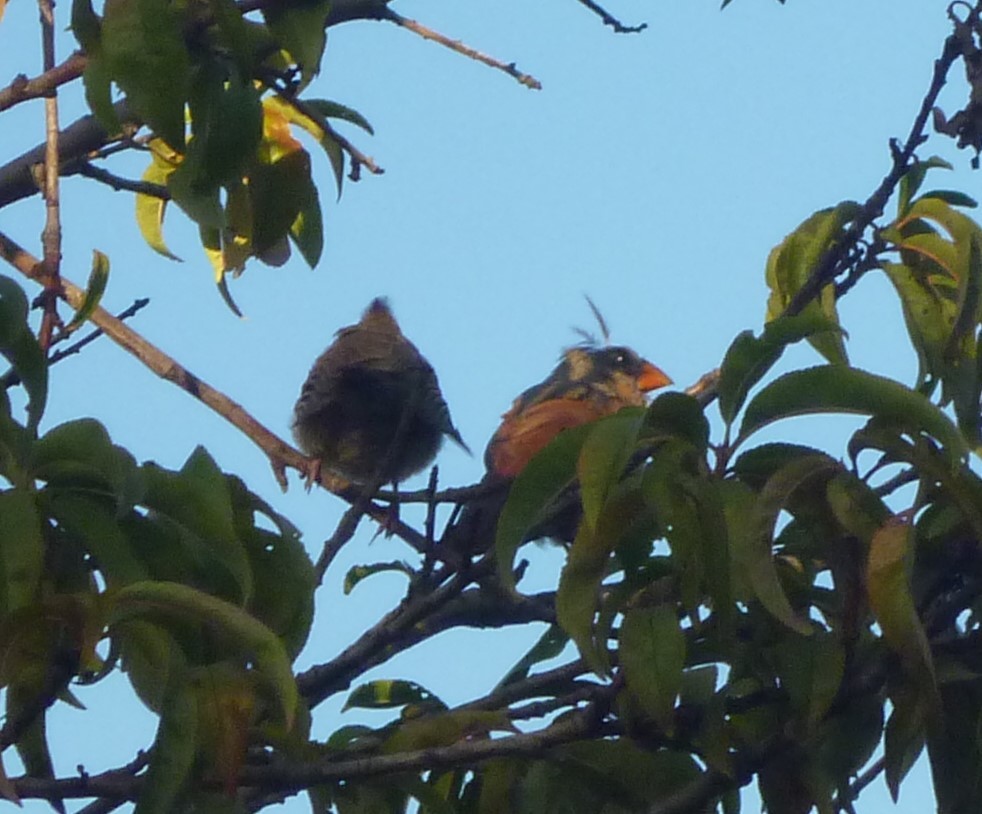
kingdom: Animalia
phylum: Chordata
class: Aves
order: Passeriformes
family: Cardinalidae
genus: Cardinalis
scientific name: Cardinalis cardinalis
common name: Northern cardinal
